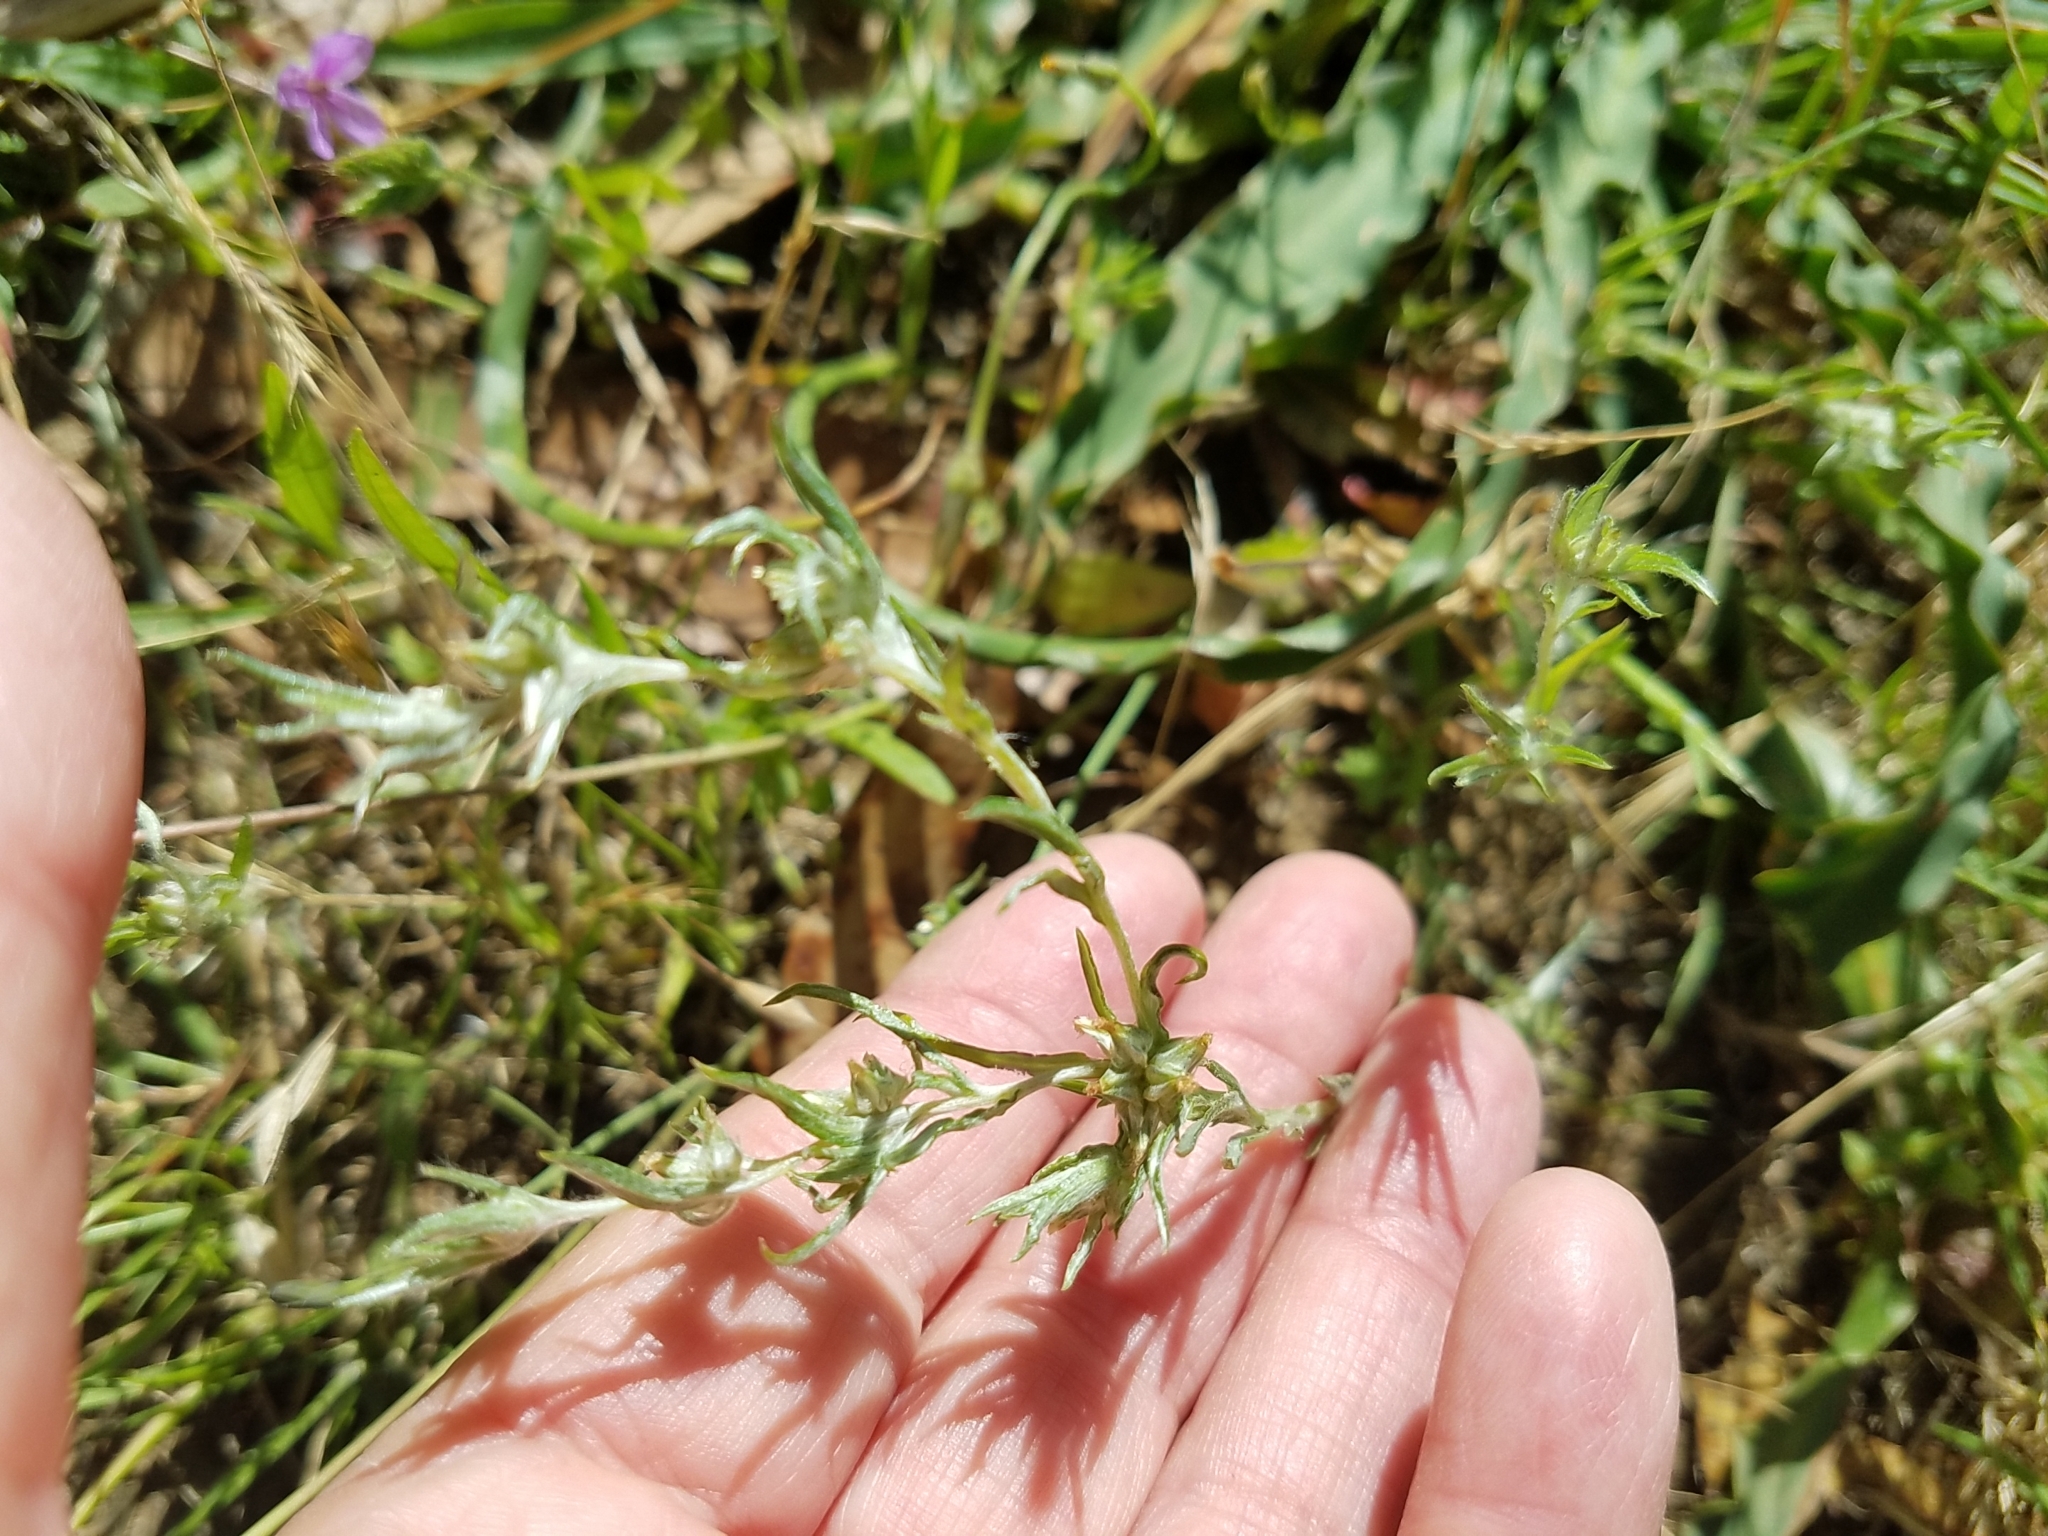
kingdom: Plantae
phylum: Tracheophyta
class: Magnoliopsida
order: Asterales
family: Asteraceae
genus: Logfia
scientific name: Logfia gallica
